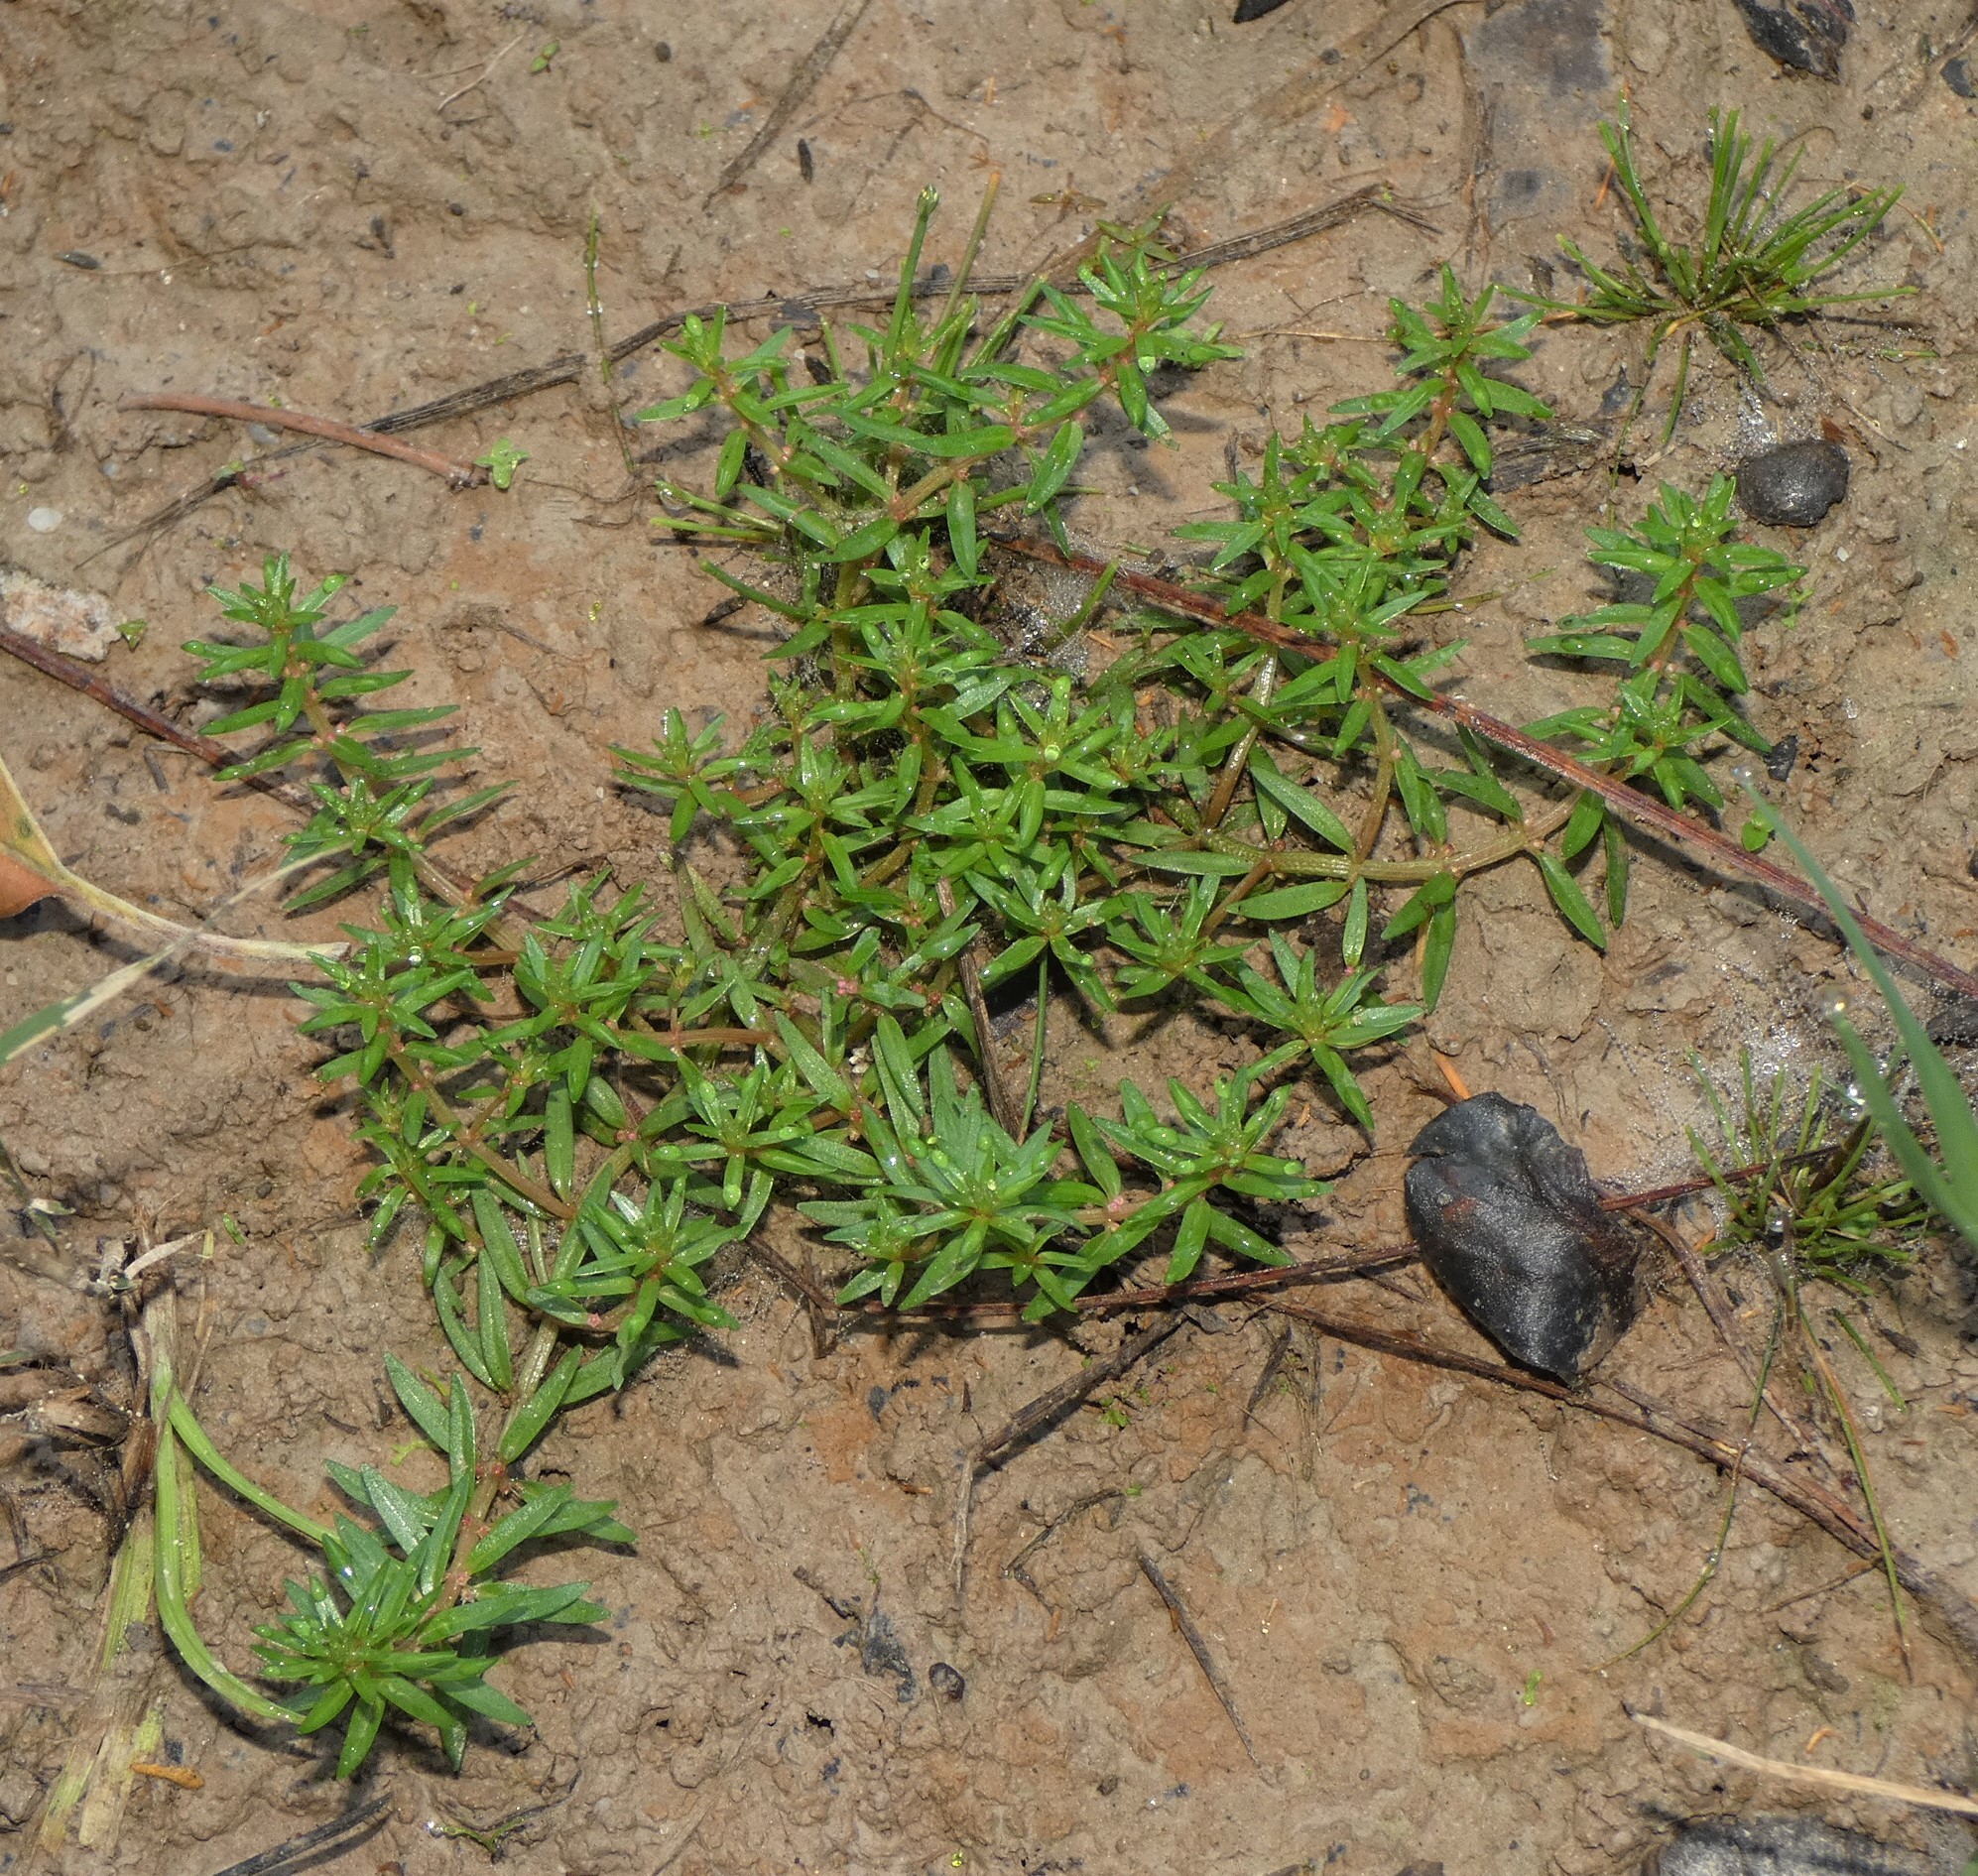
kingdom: Plantae
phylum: Tracheophyta
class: Magnoliopsida
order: Myrtales
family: Lythraceae
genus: Rotala
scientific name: Rotala mexicana
